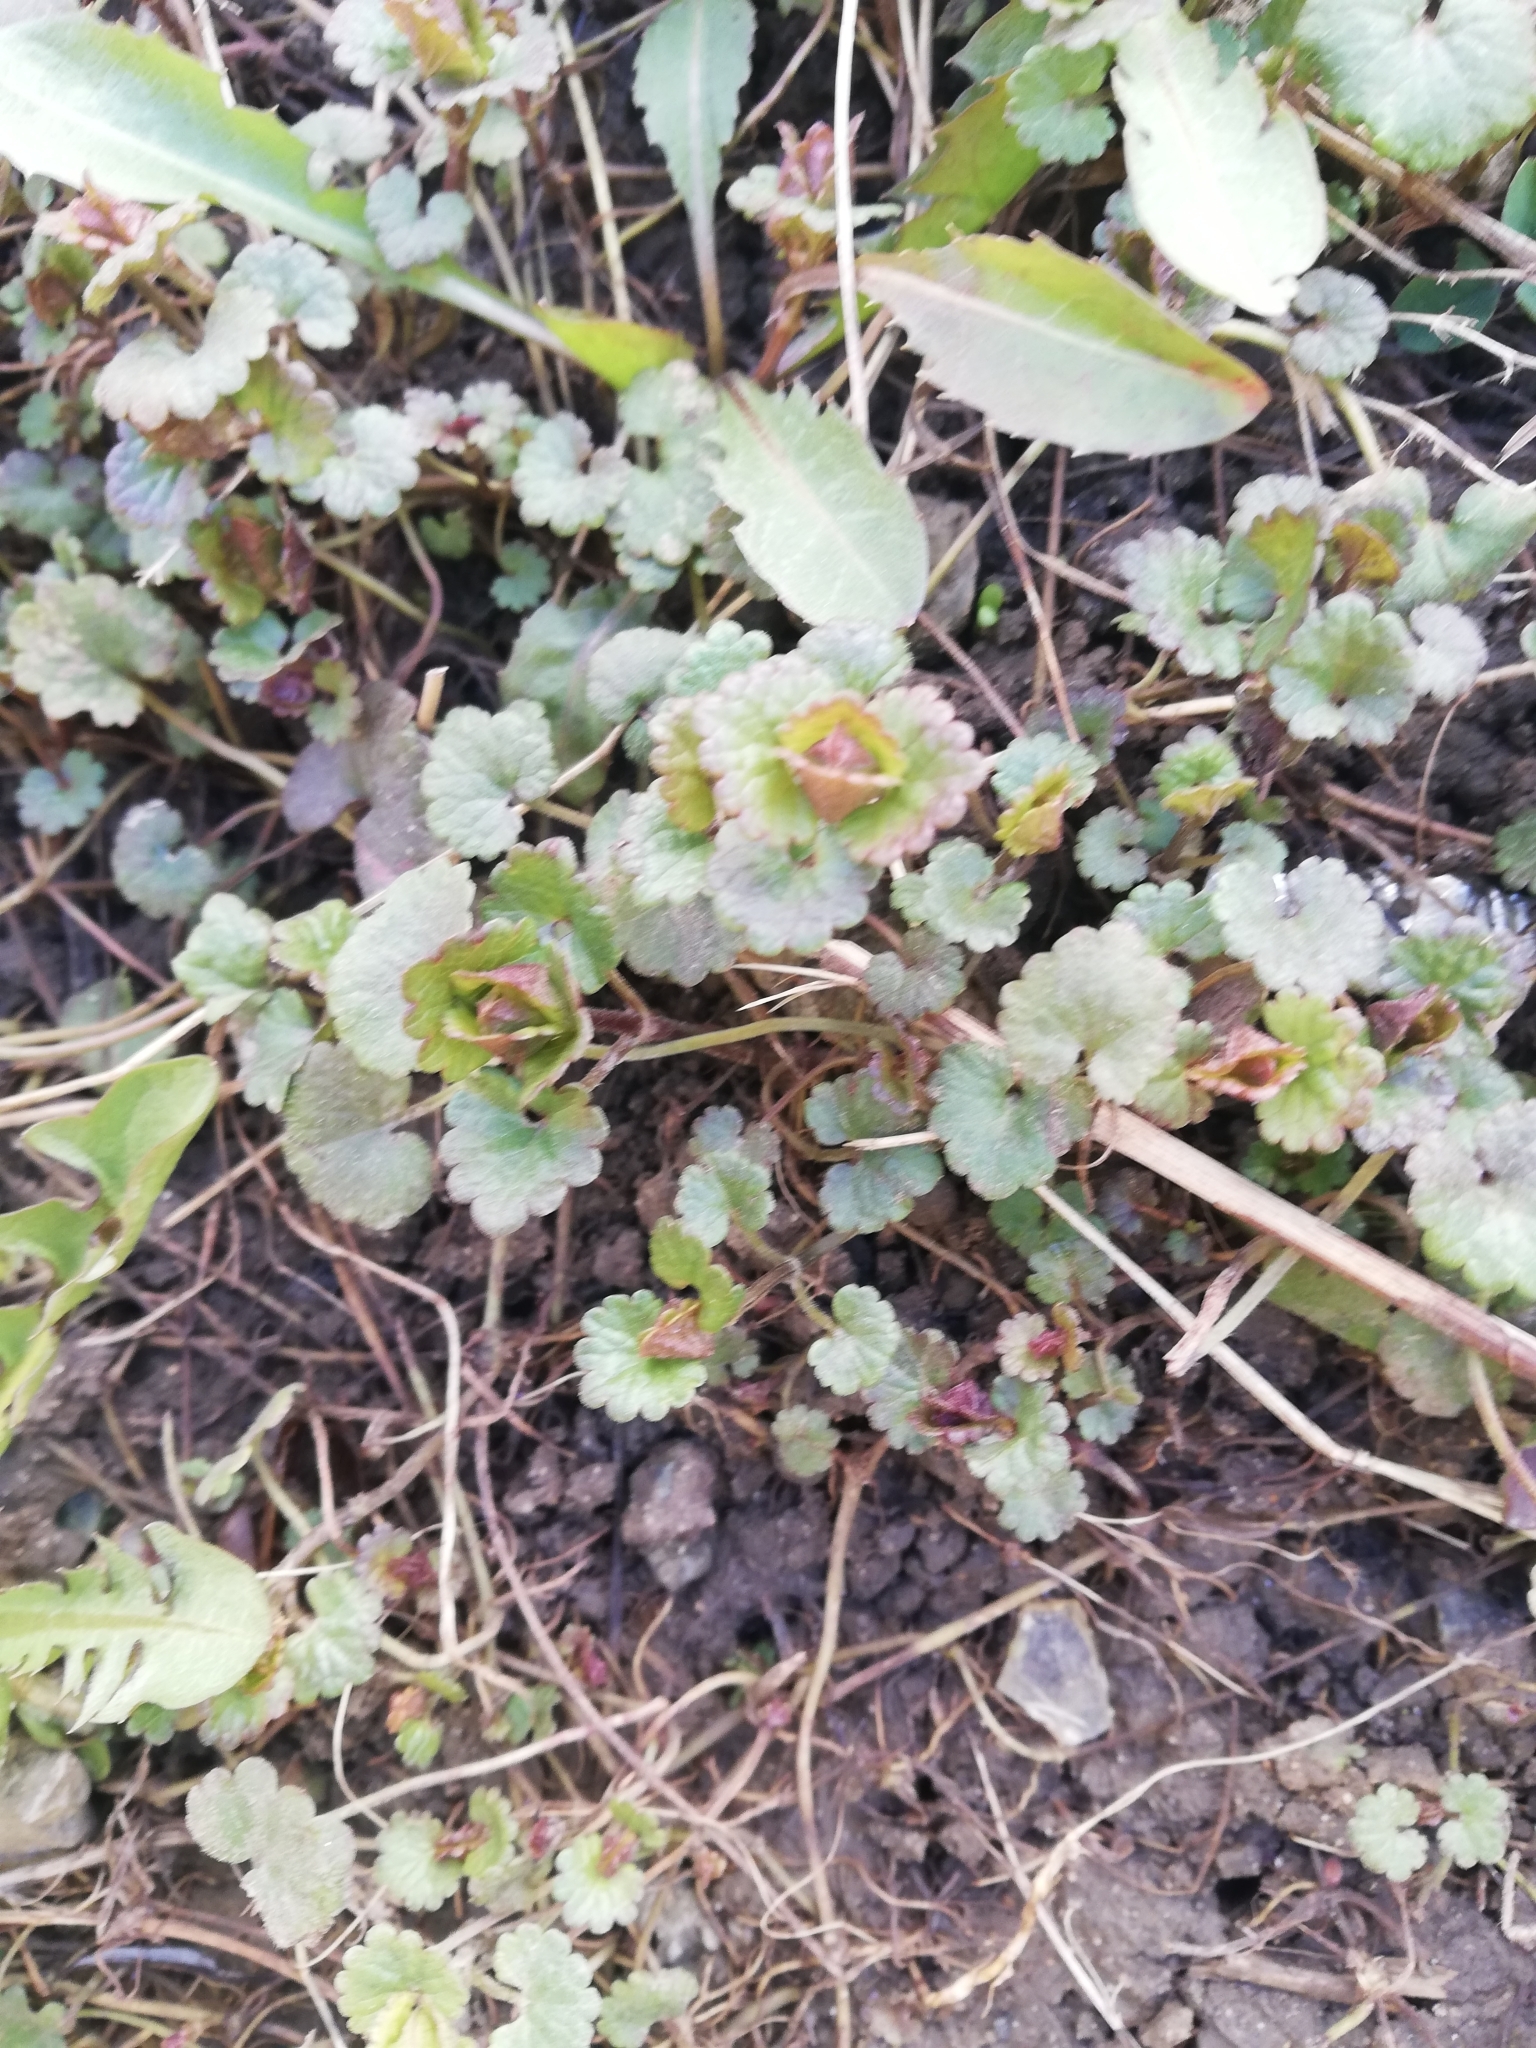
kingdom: Plantae
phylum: Tracheophyta
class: Magnoliopsida
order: Lamiales
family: Lamiaceae
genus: Glechoma
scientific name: Glechoma hederacea
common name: Ground ivy
